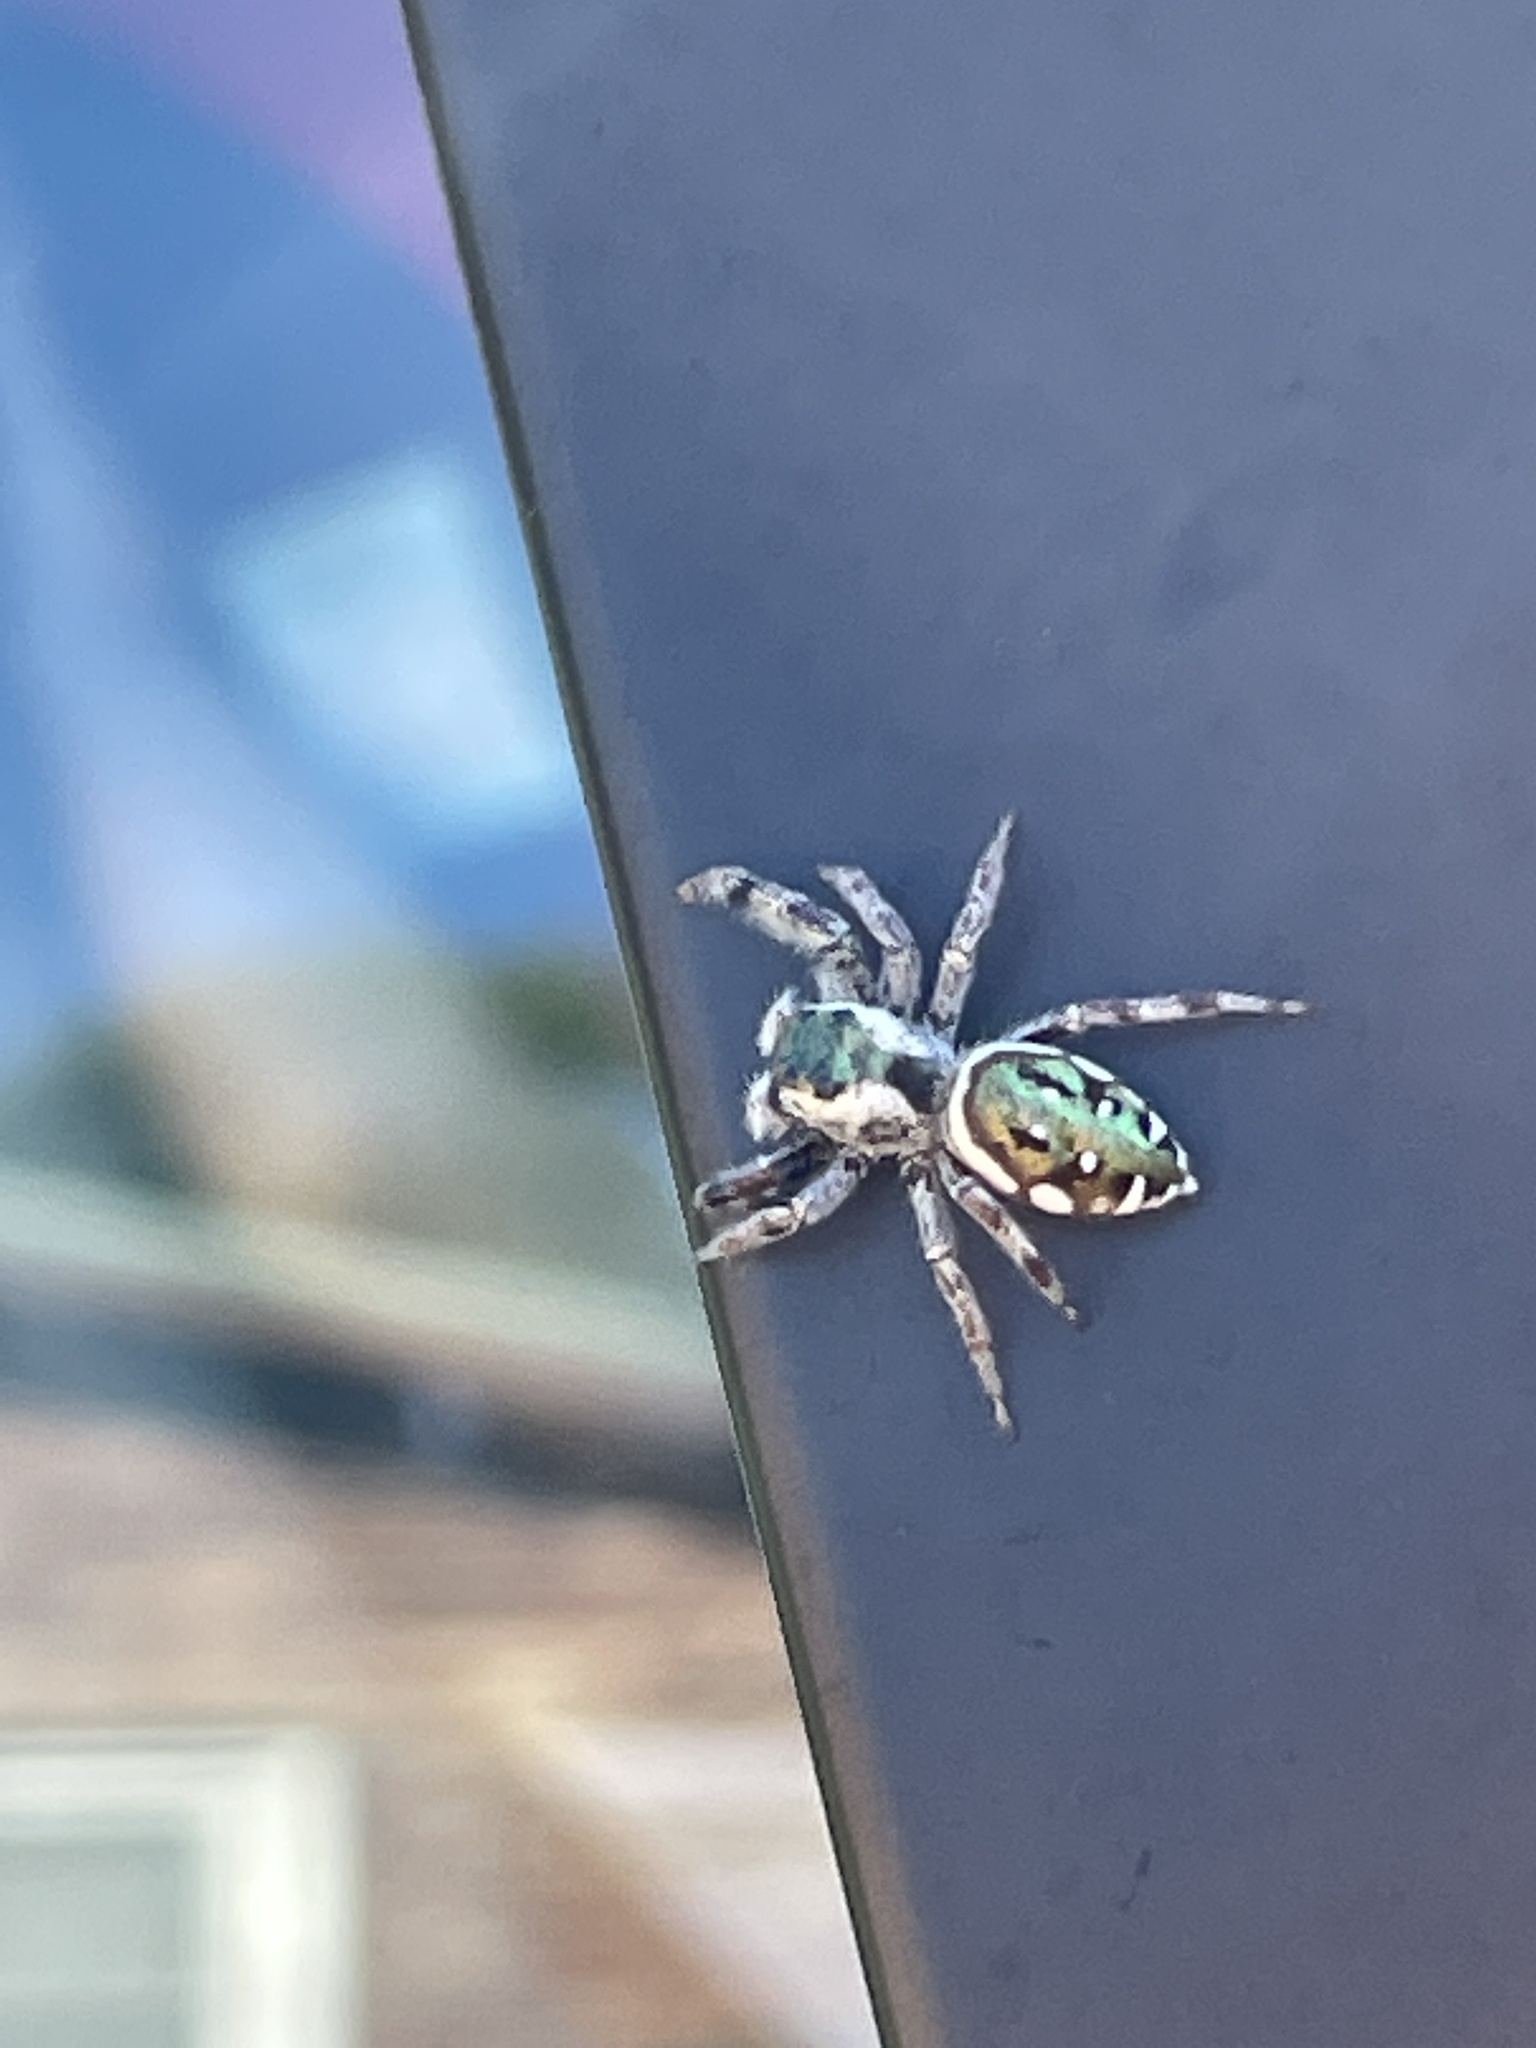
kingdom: Animalia
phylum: Arthropoda
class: Arachnida
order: Araneae
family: Salticidae
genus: Paraphidippus
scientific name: Paraphidippus aurantius
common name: Jumping spiders
